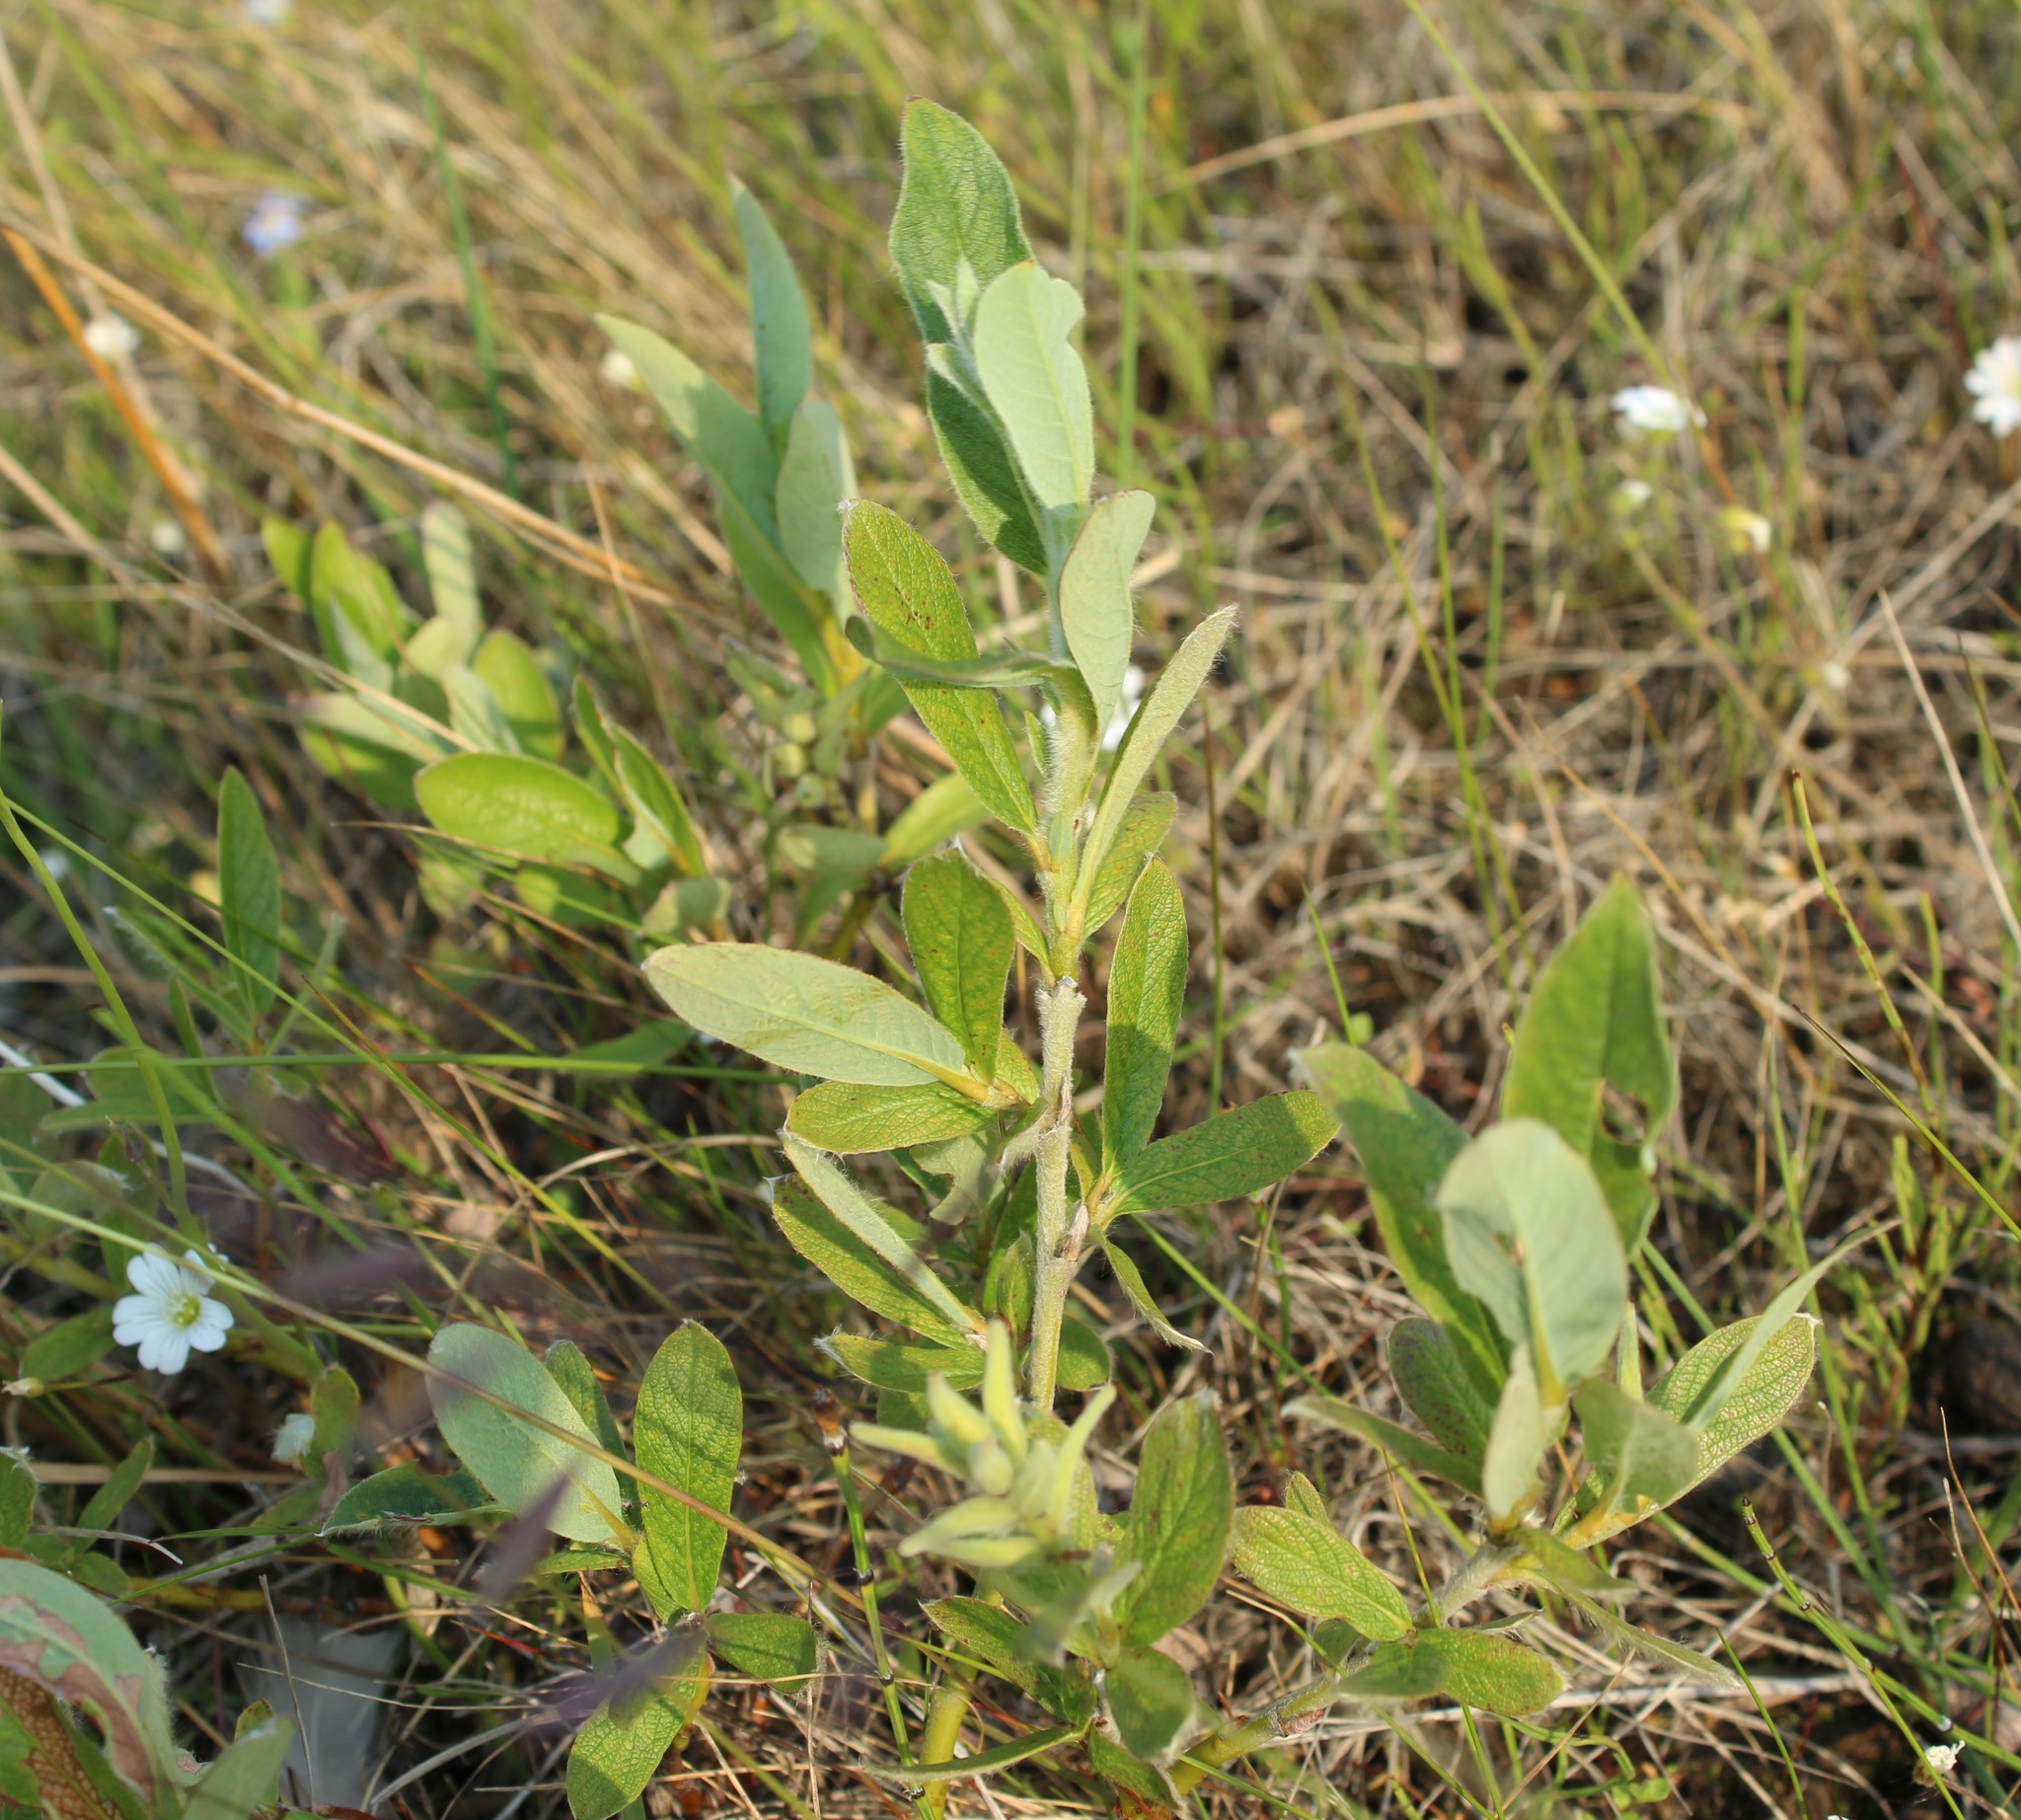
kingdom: Plantae
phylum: Tracheophyta
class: Magnoliopsida
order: Malpighiales
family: Salicaceae
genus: Salix
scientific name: Salix lanata
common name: Woolly willow
